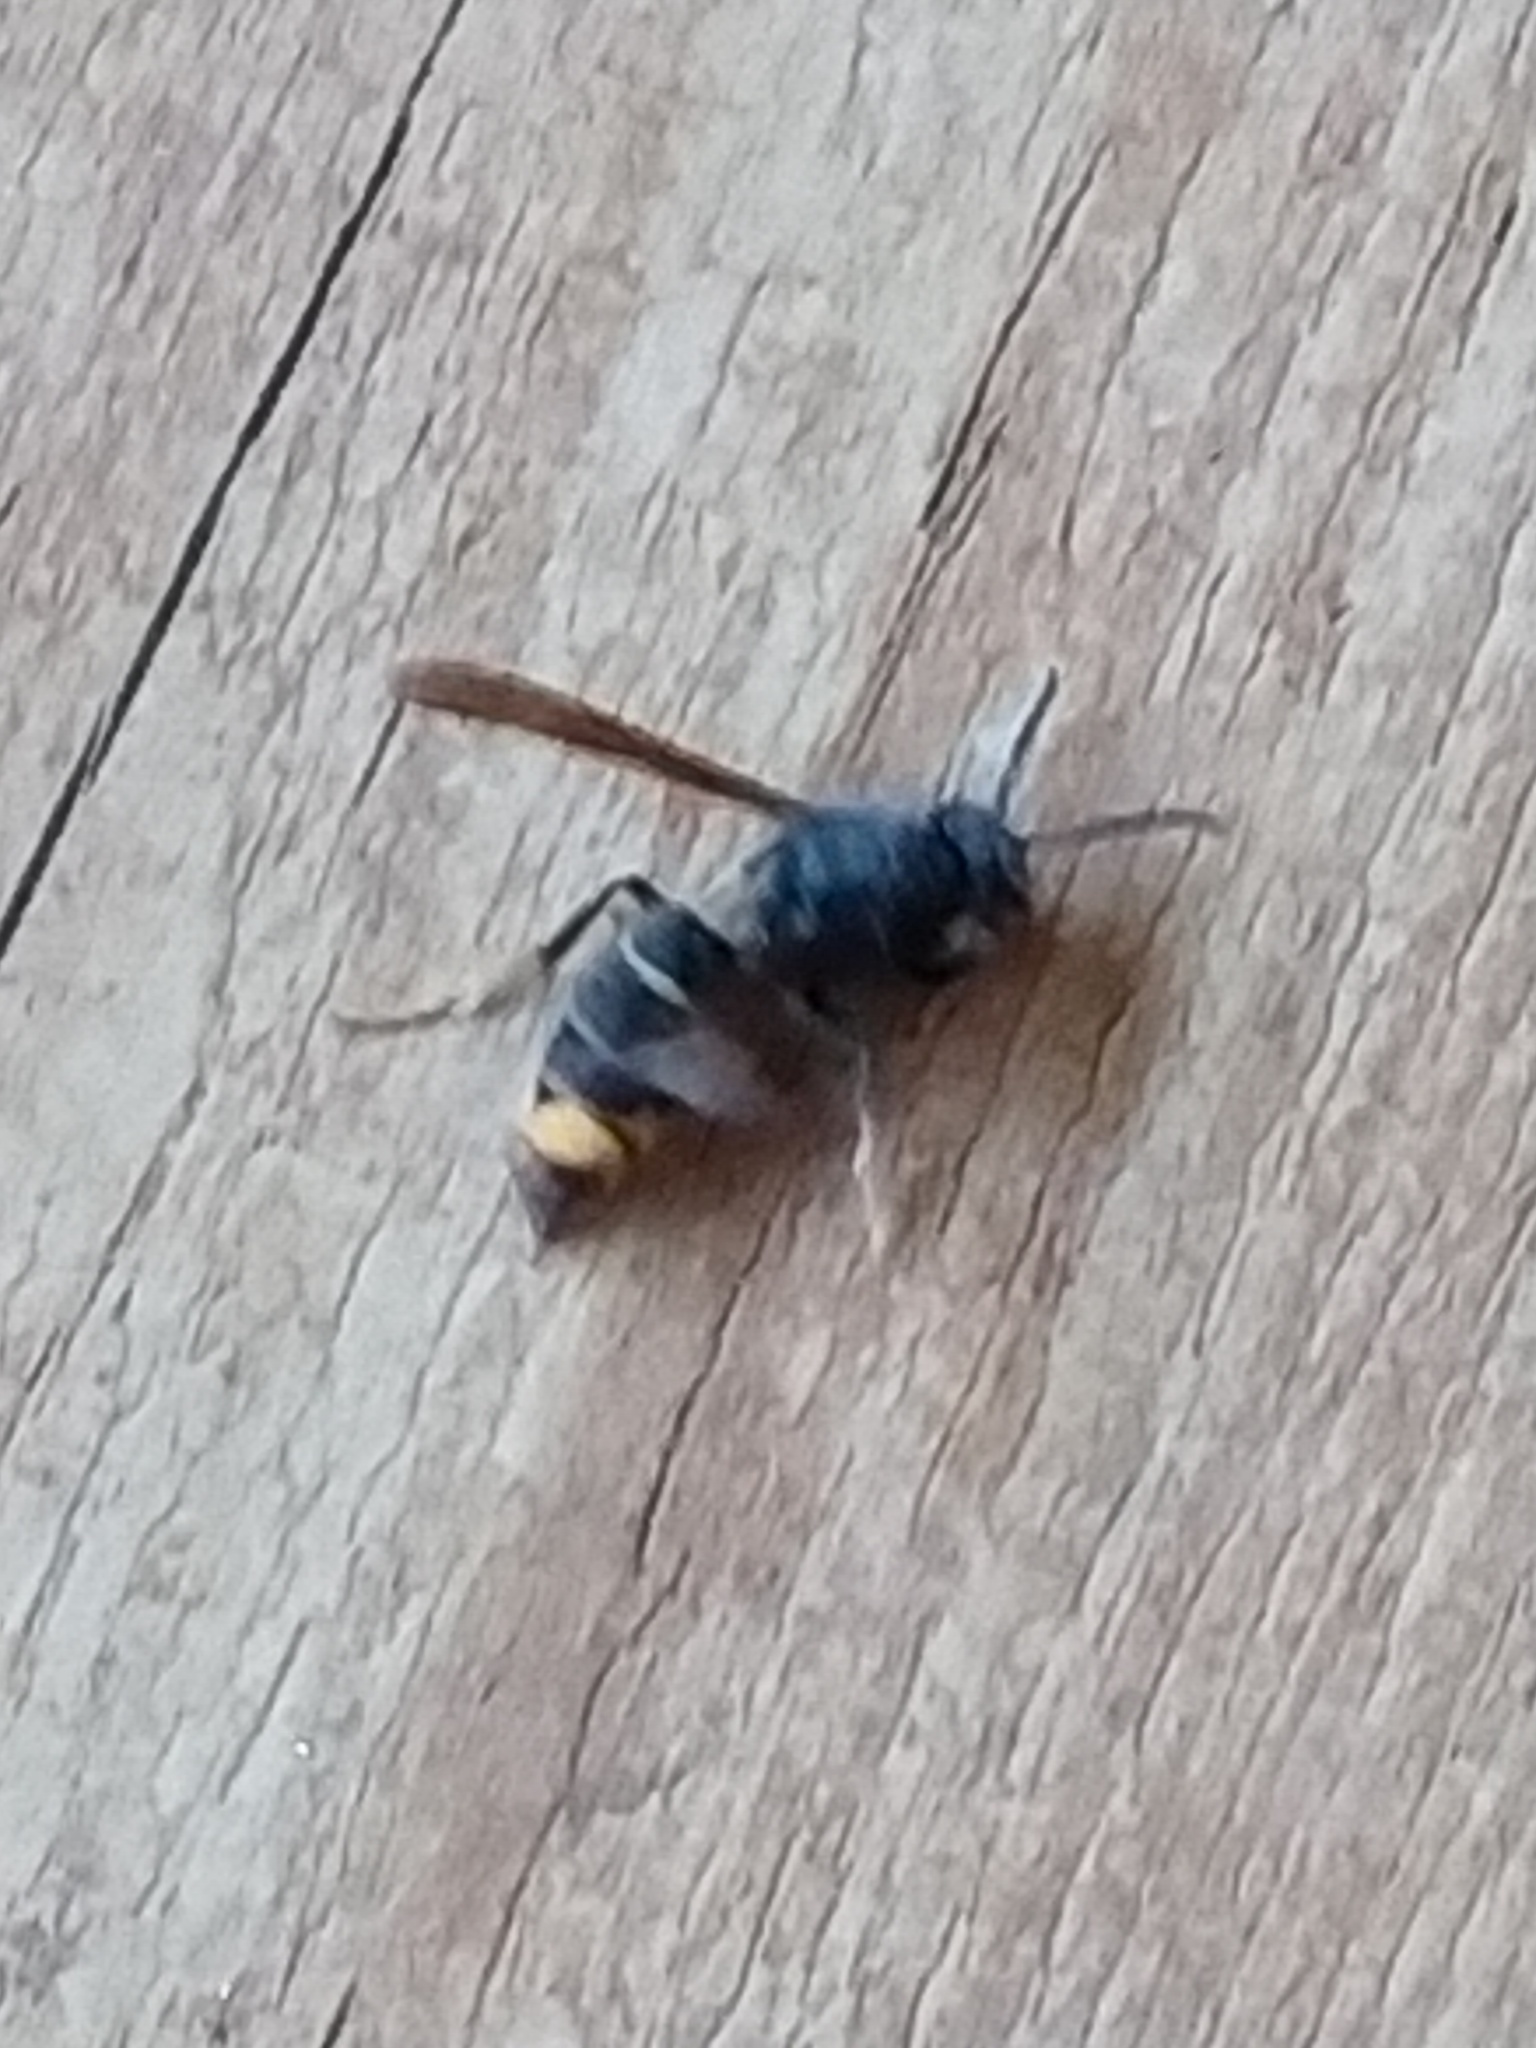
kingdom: Animalia
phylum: Arthropoda
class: Insecta
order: Hymenoptera
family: Vespidae
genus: Vespa
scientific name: Vespa velutina
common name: Asian hornet
